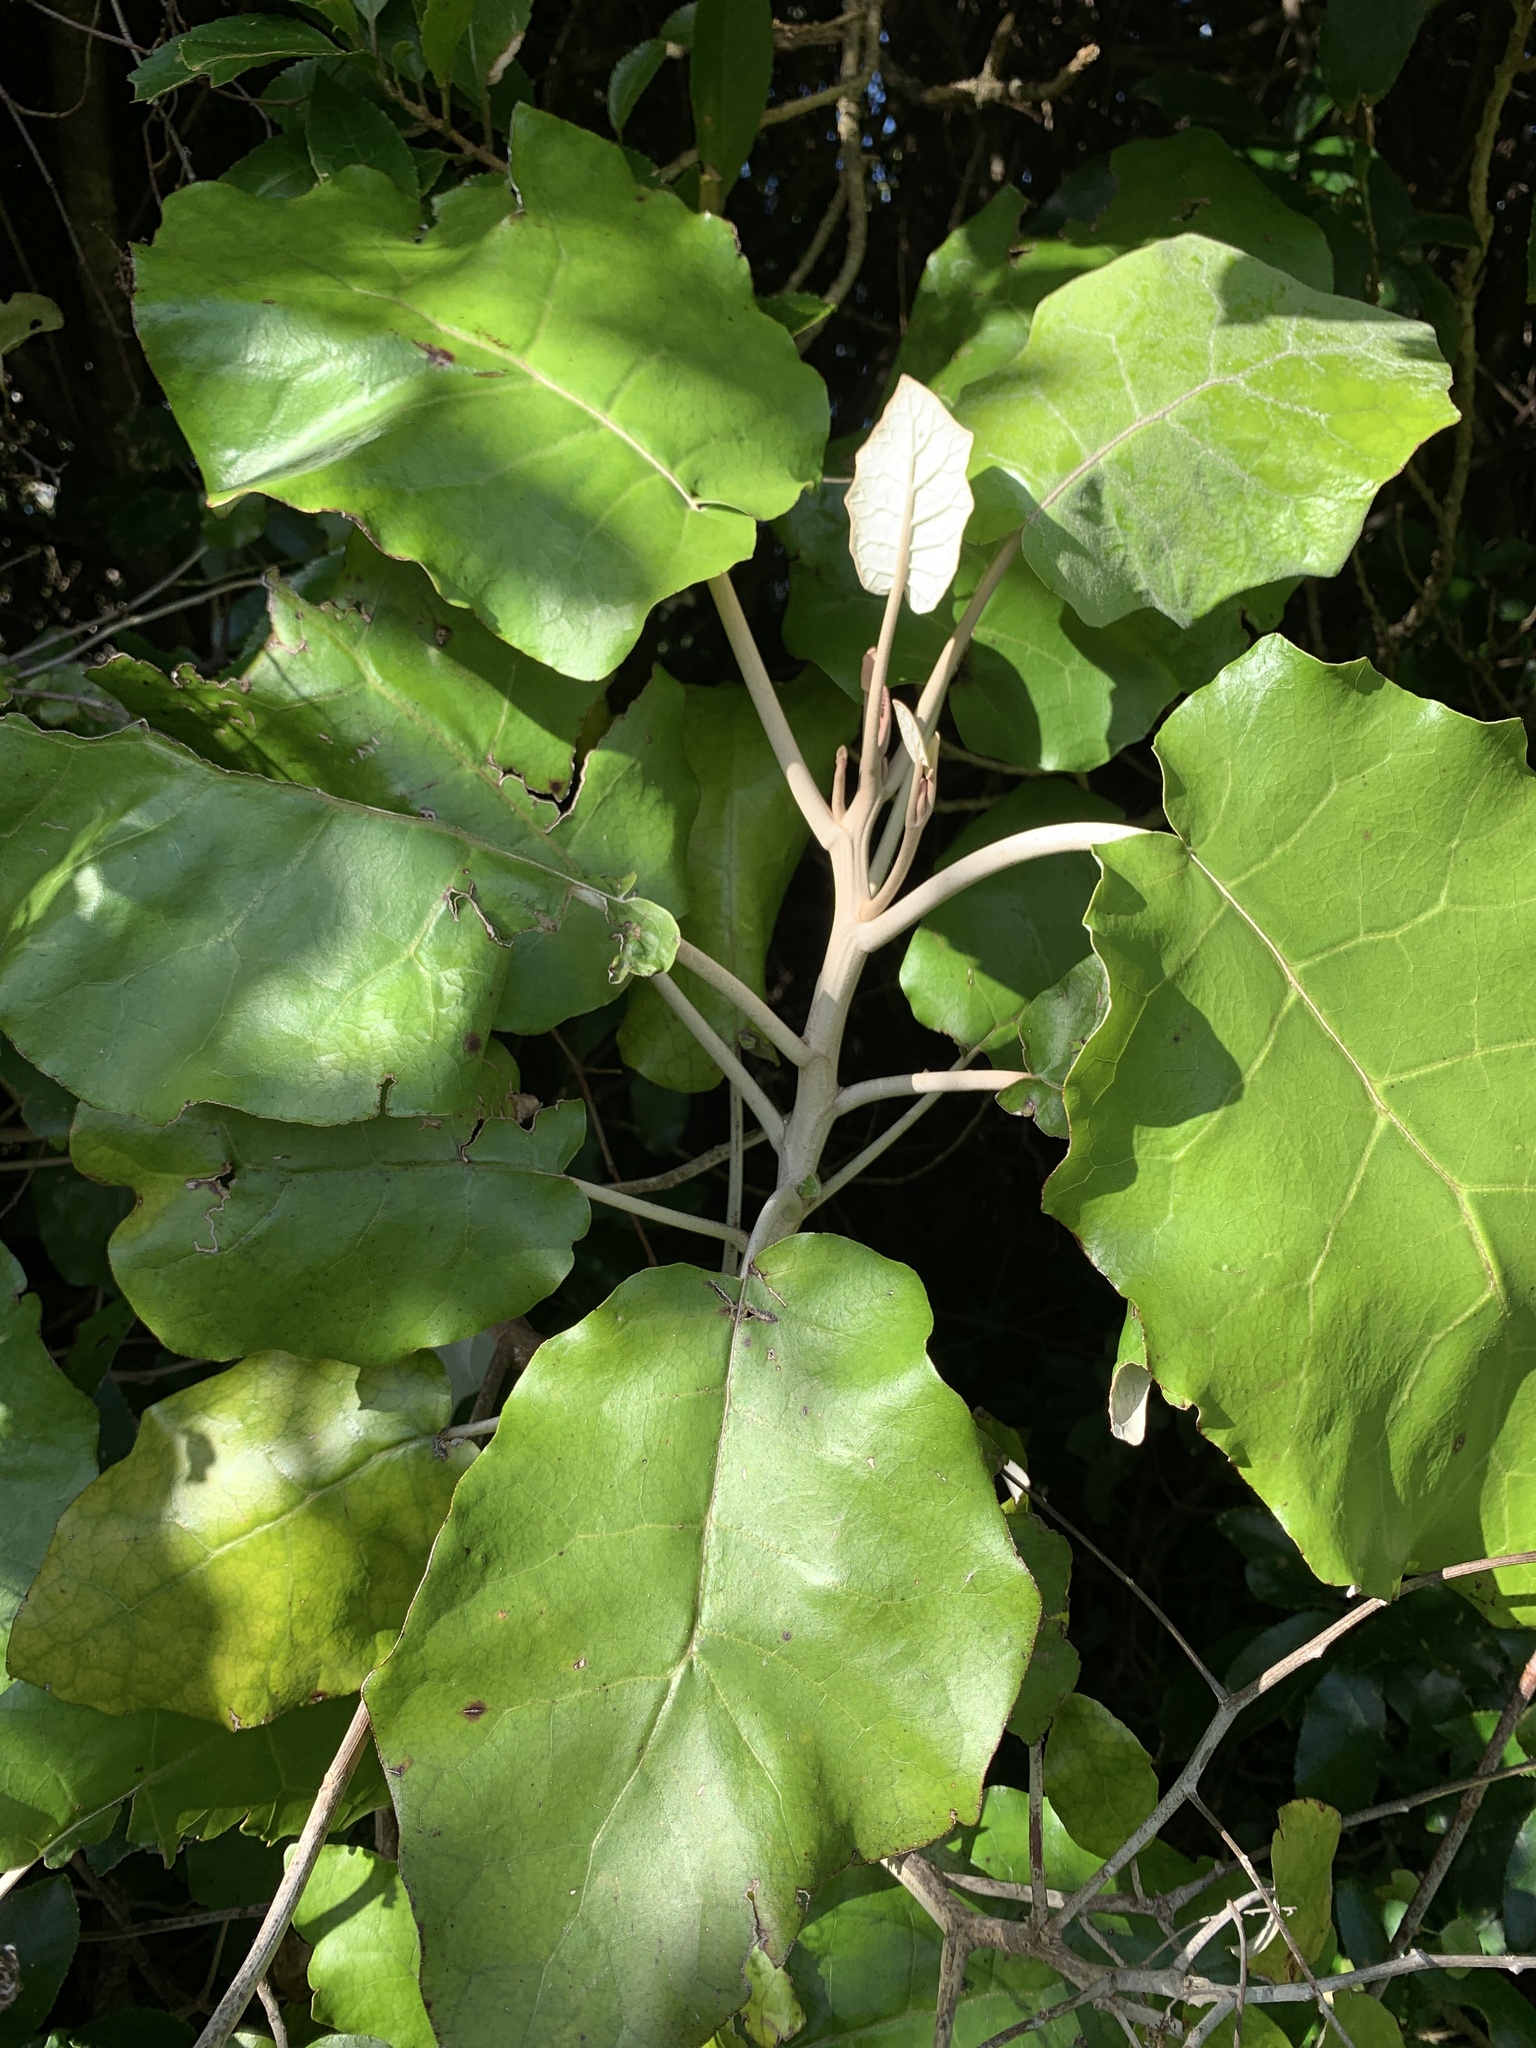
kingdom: Plantae
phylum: Tracheophyta
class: Magnoliopsida
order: Asterales
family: Asteraceae
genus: Brachyglottis
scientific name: Brachyglottis repanda
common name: Hedge ragwort
